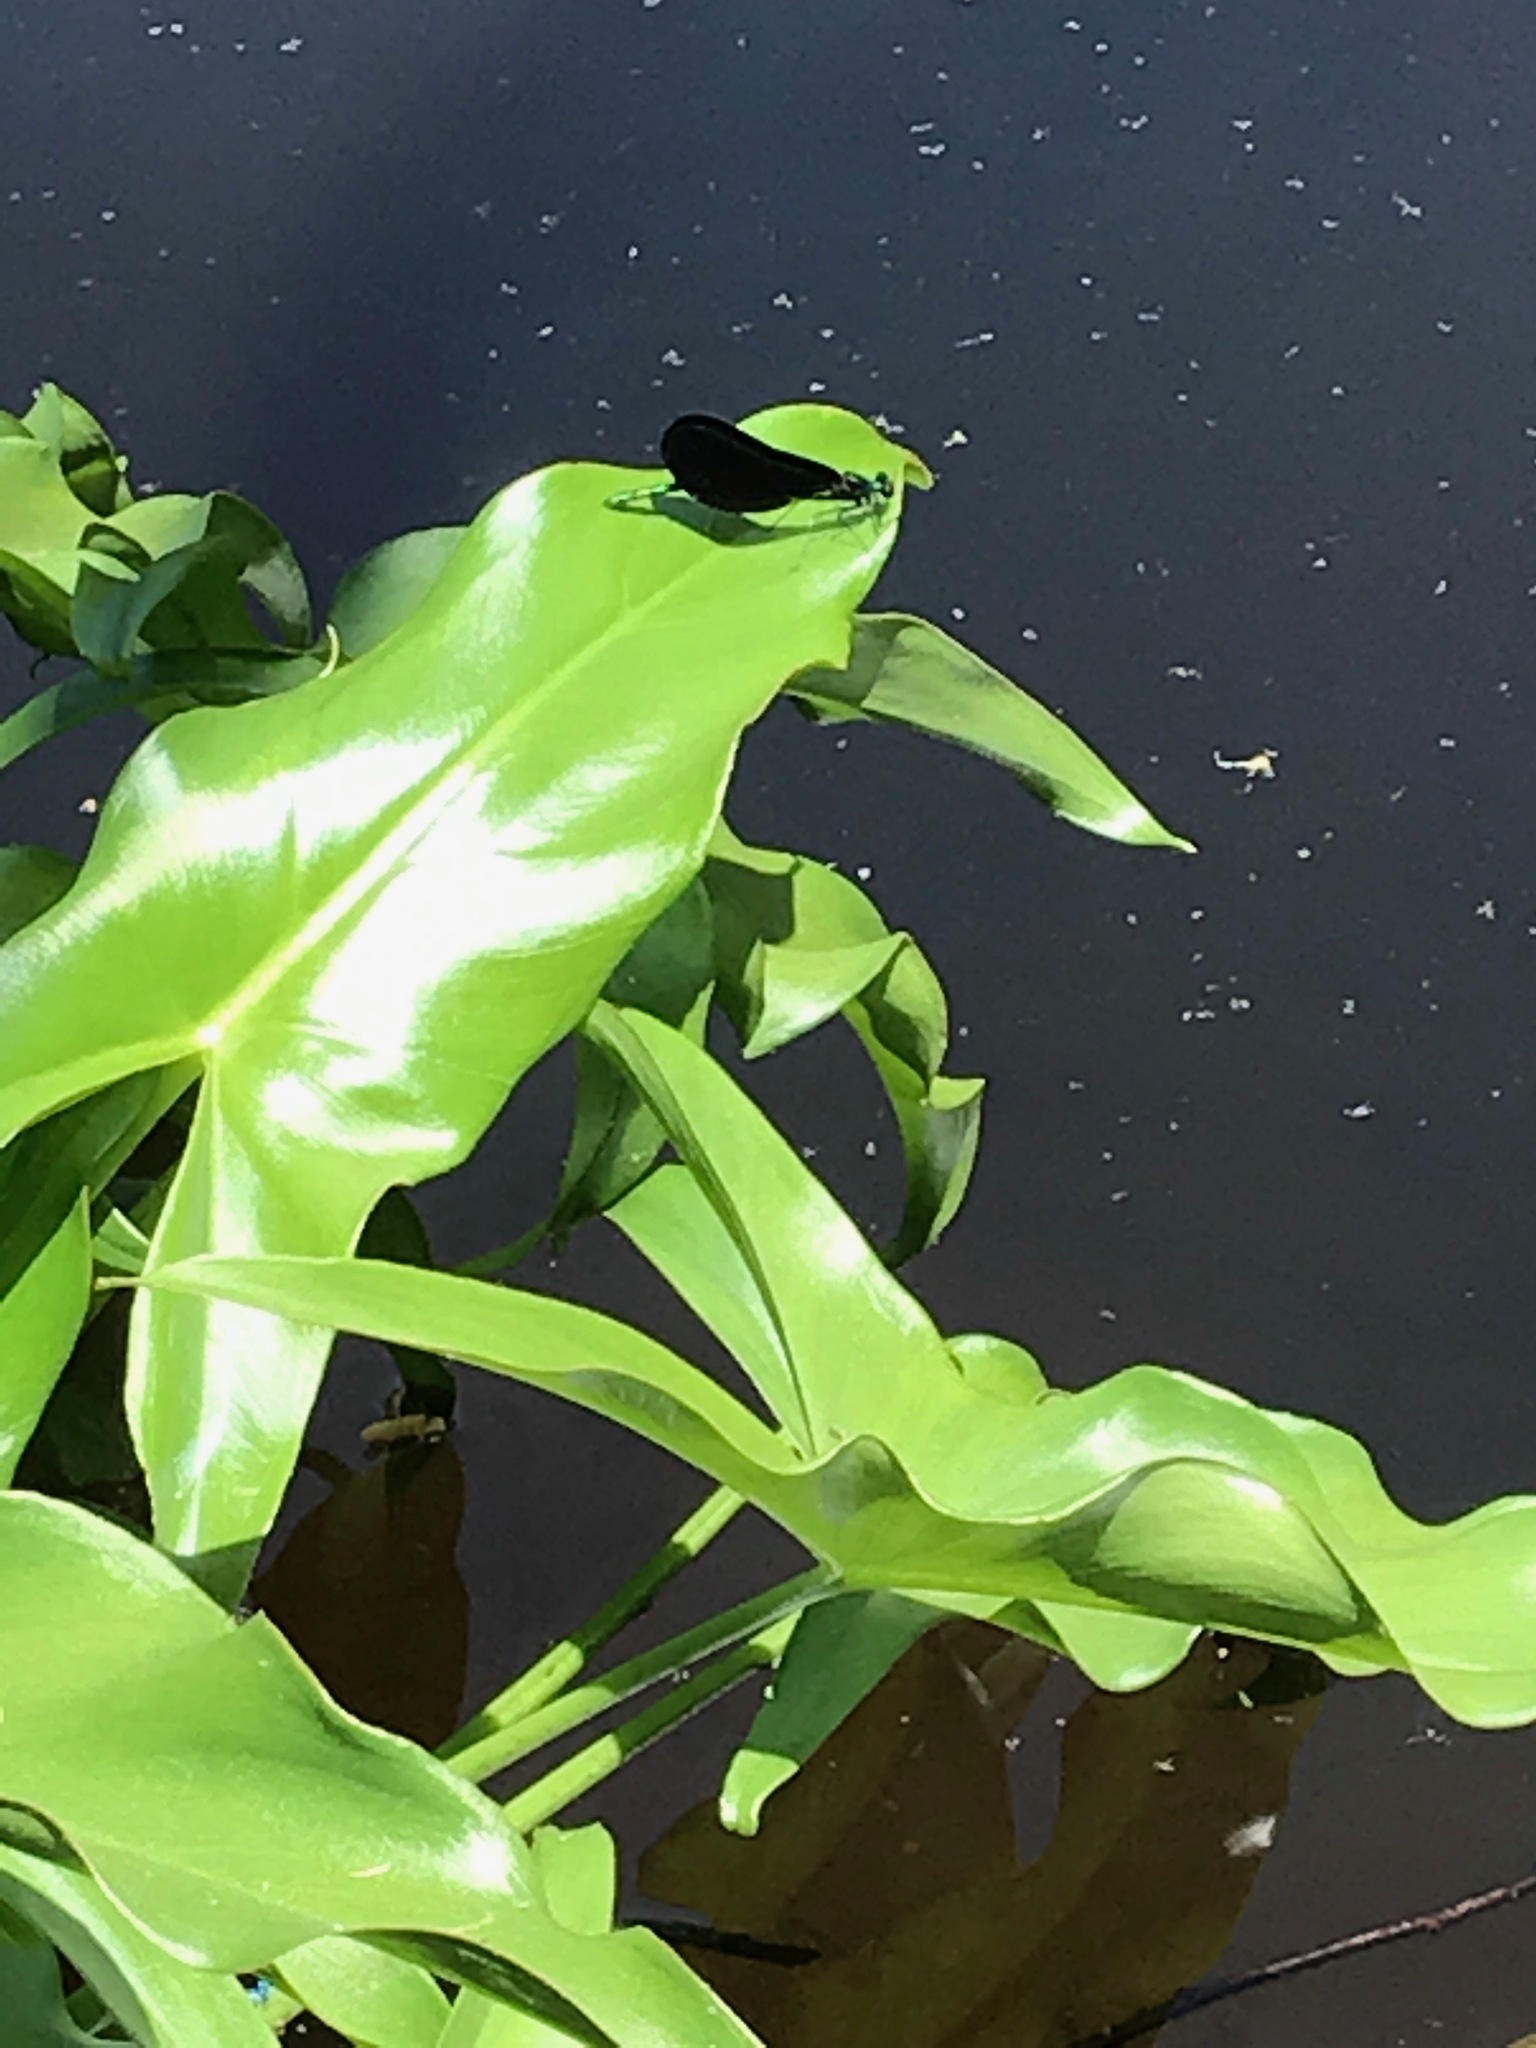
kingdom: Animalia
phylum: Arthropoda
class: Insecta
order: Odonata
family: Calopterygidae
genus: Calopteryx
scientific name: Calopteryx maculata
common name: Ebony jewelwing
